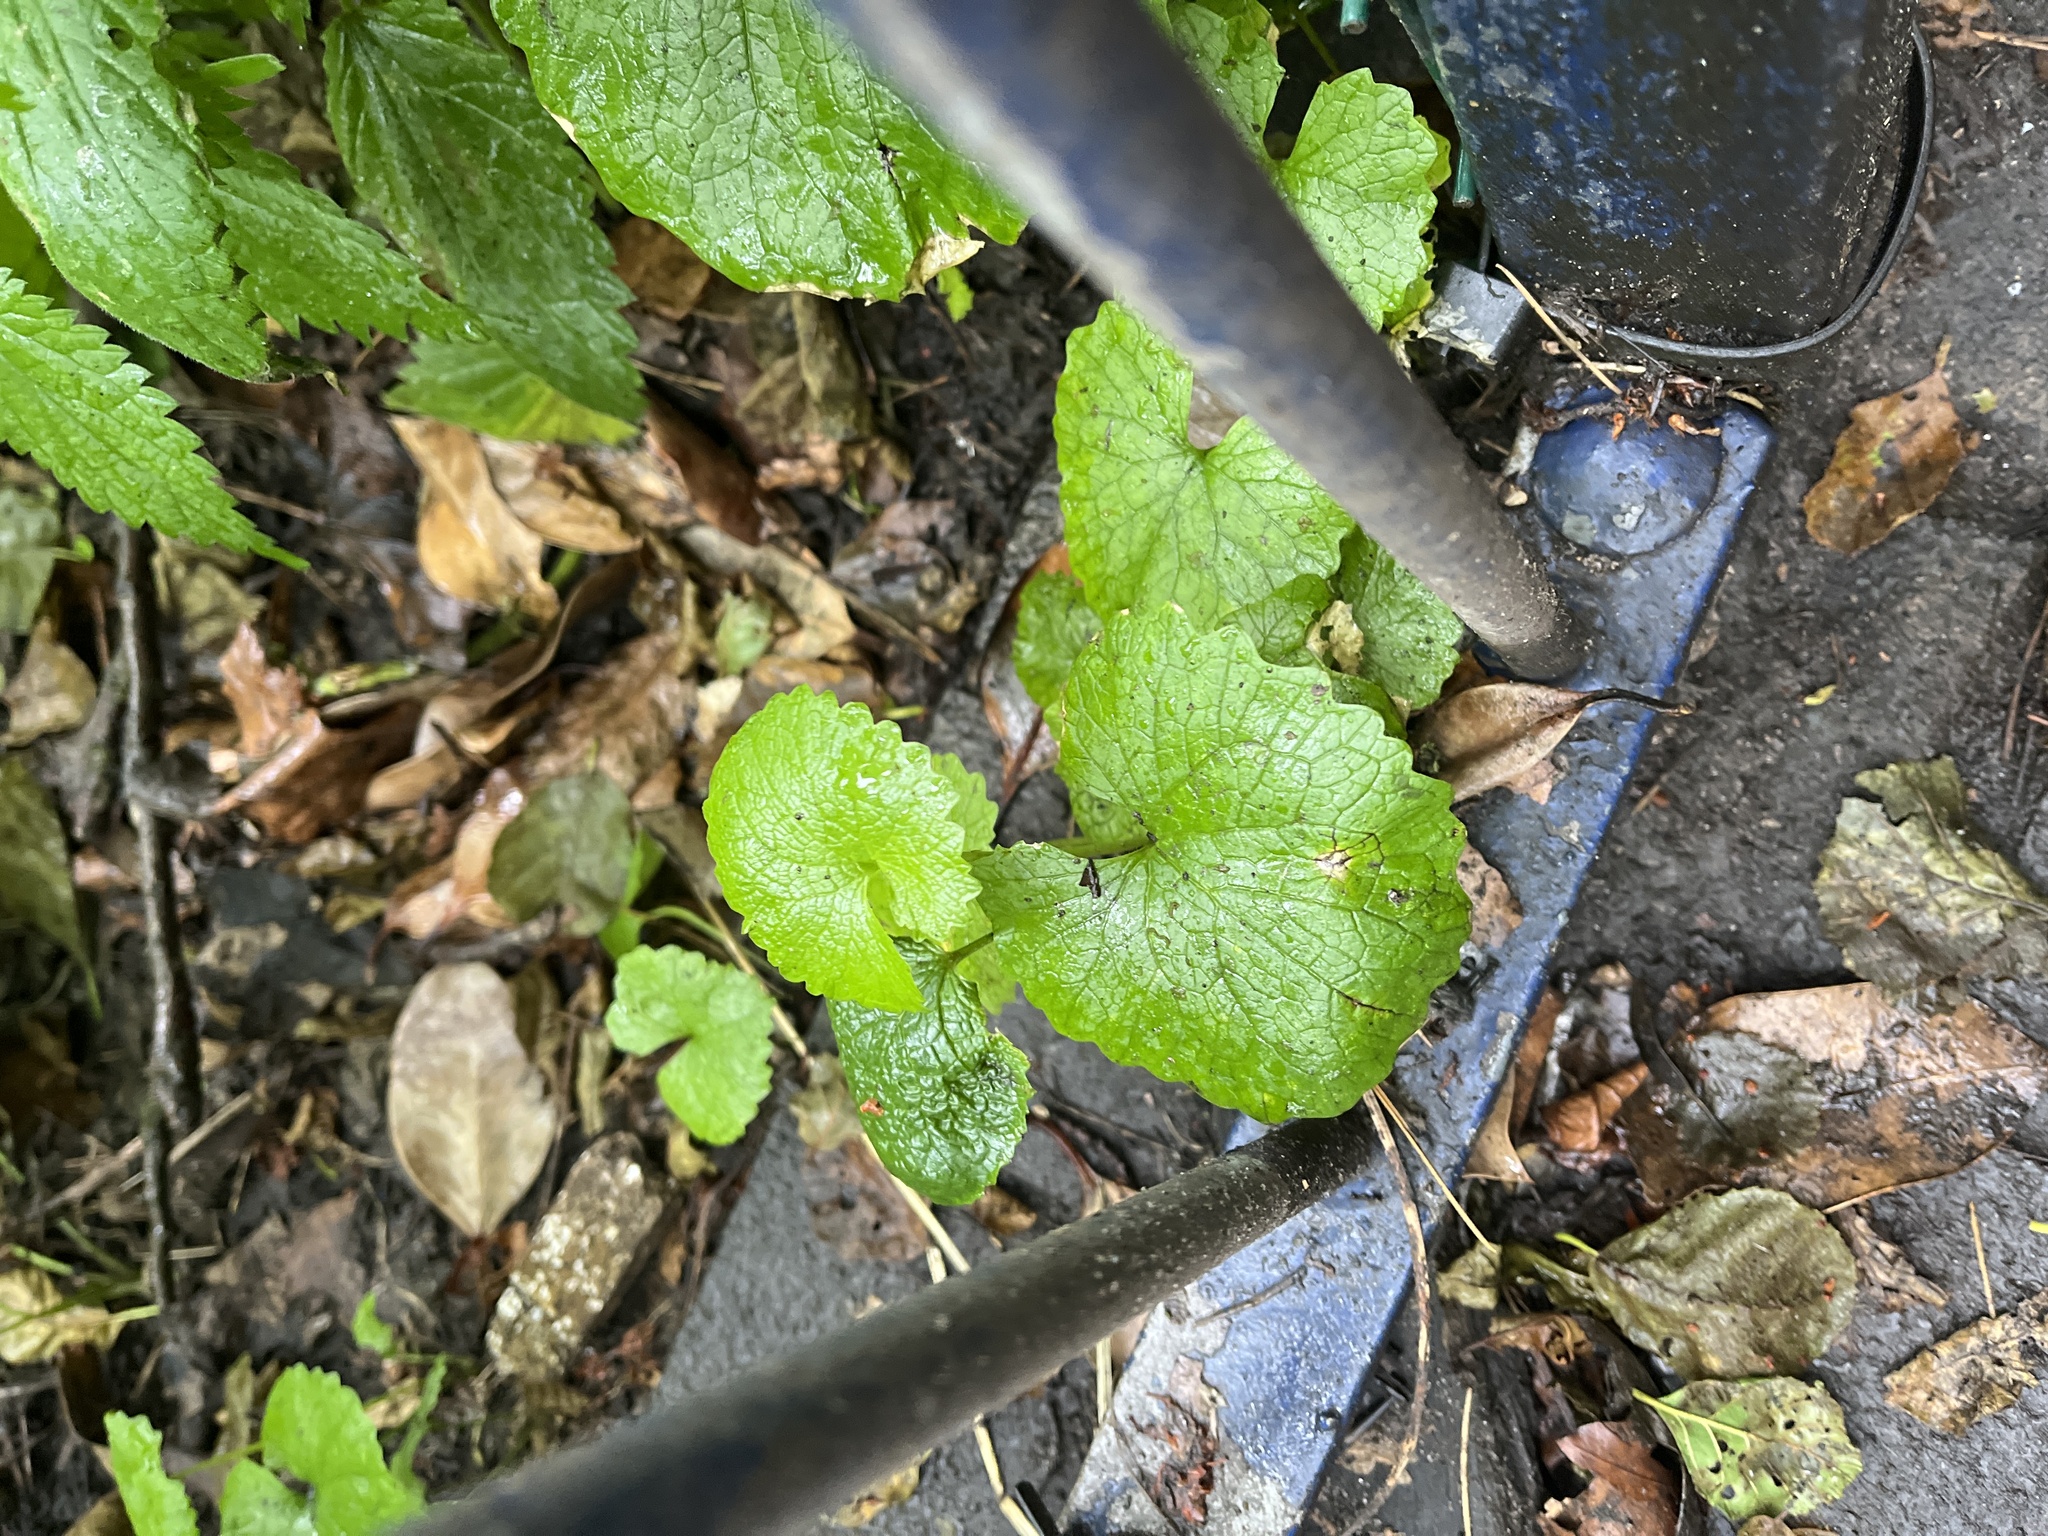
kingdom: Plantae
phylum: Tracheophyta
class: Magnoliopsida
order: Brassicales
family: Brassicaceae
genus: Alliaria
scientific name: Alliaria petiolata
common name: Garlic mustard
